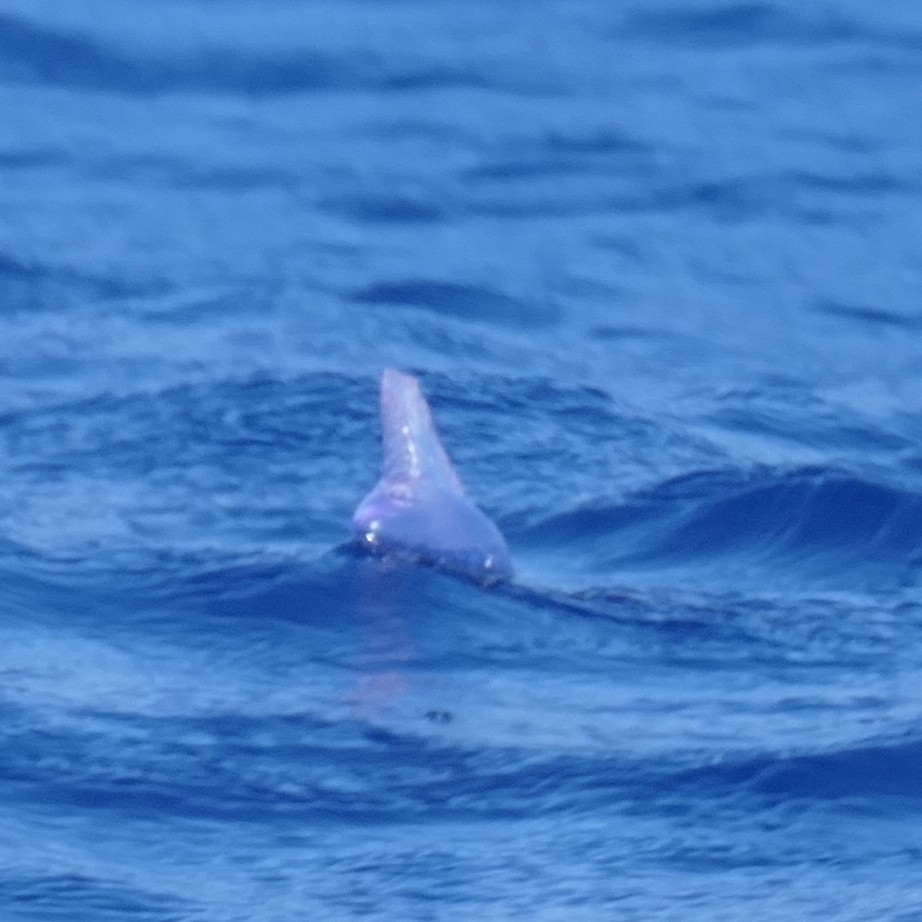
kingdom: Animalia
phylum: Cnidaria
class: Hydrozoa
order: Siphonophorae
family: Physaliidae
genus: Physalia
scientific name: Physalia physalis
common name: Portuguese man-of-war
